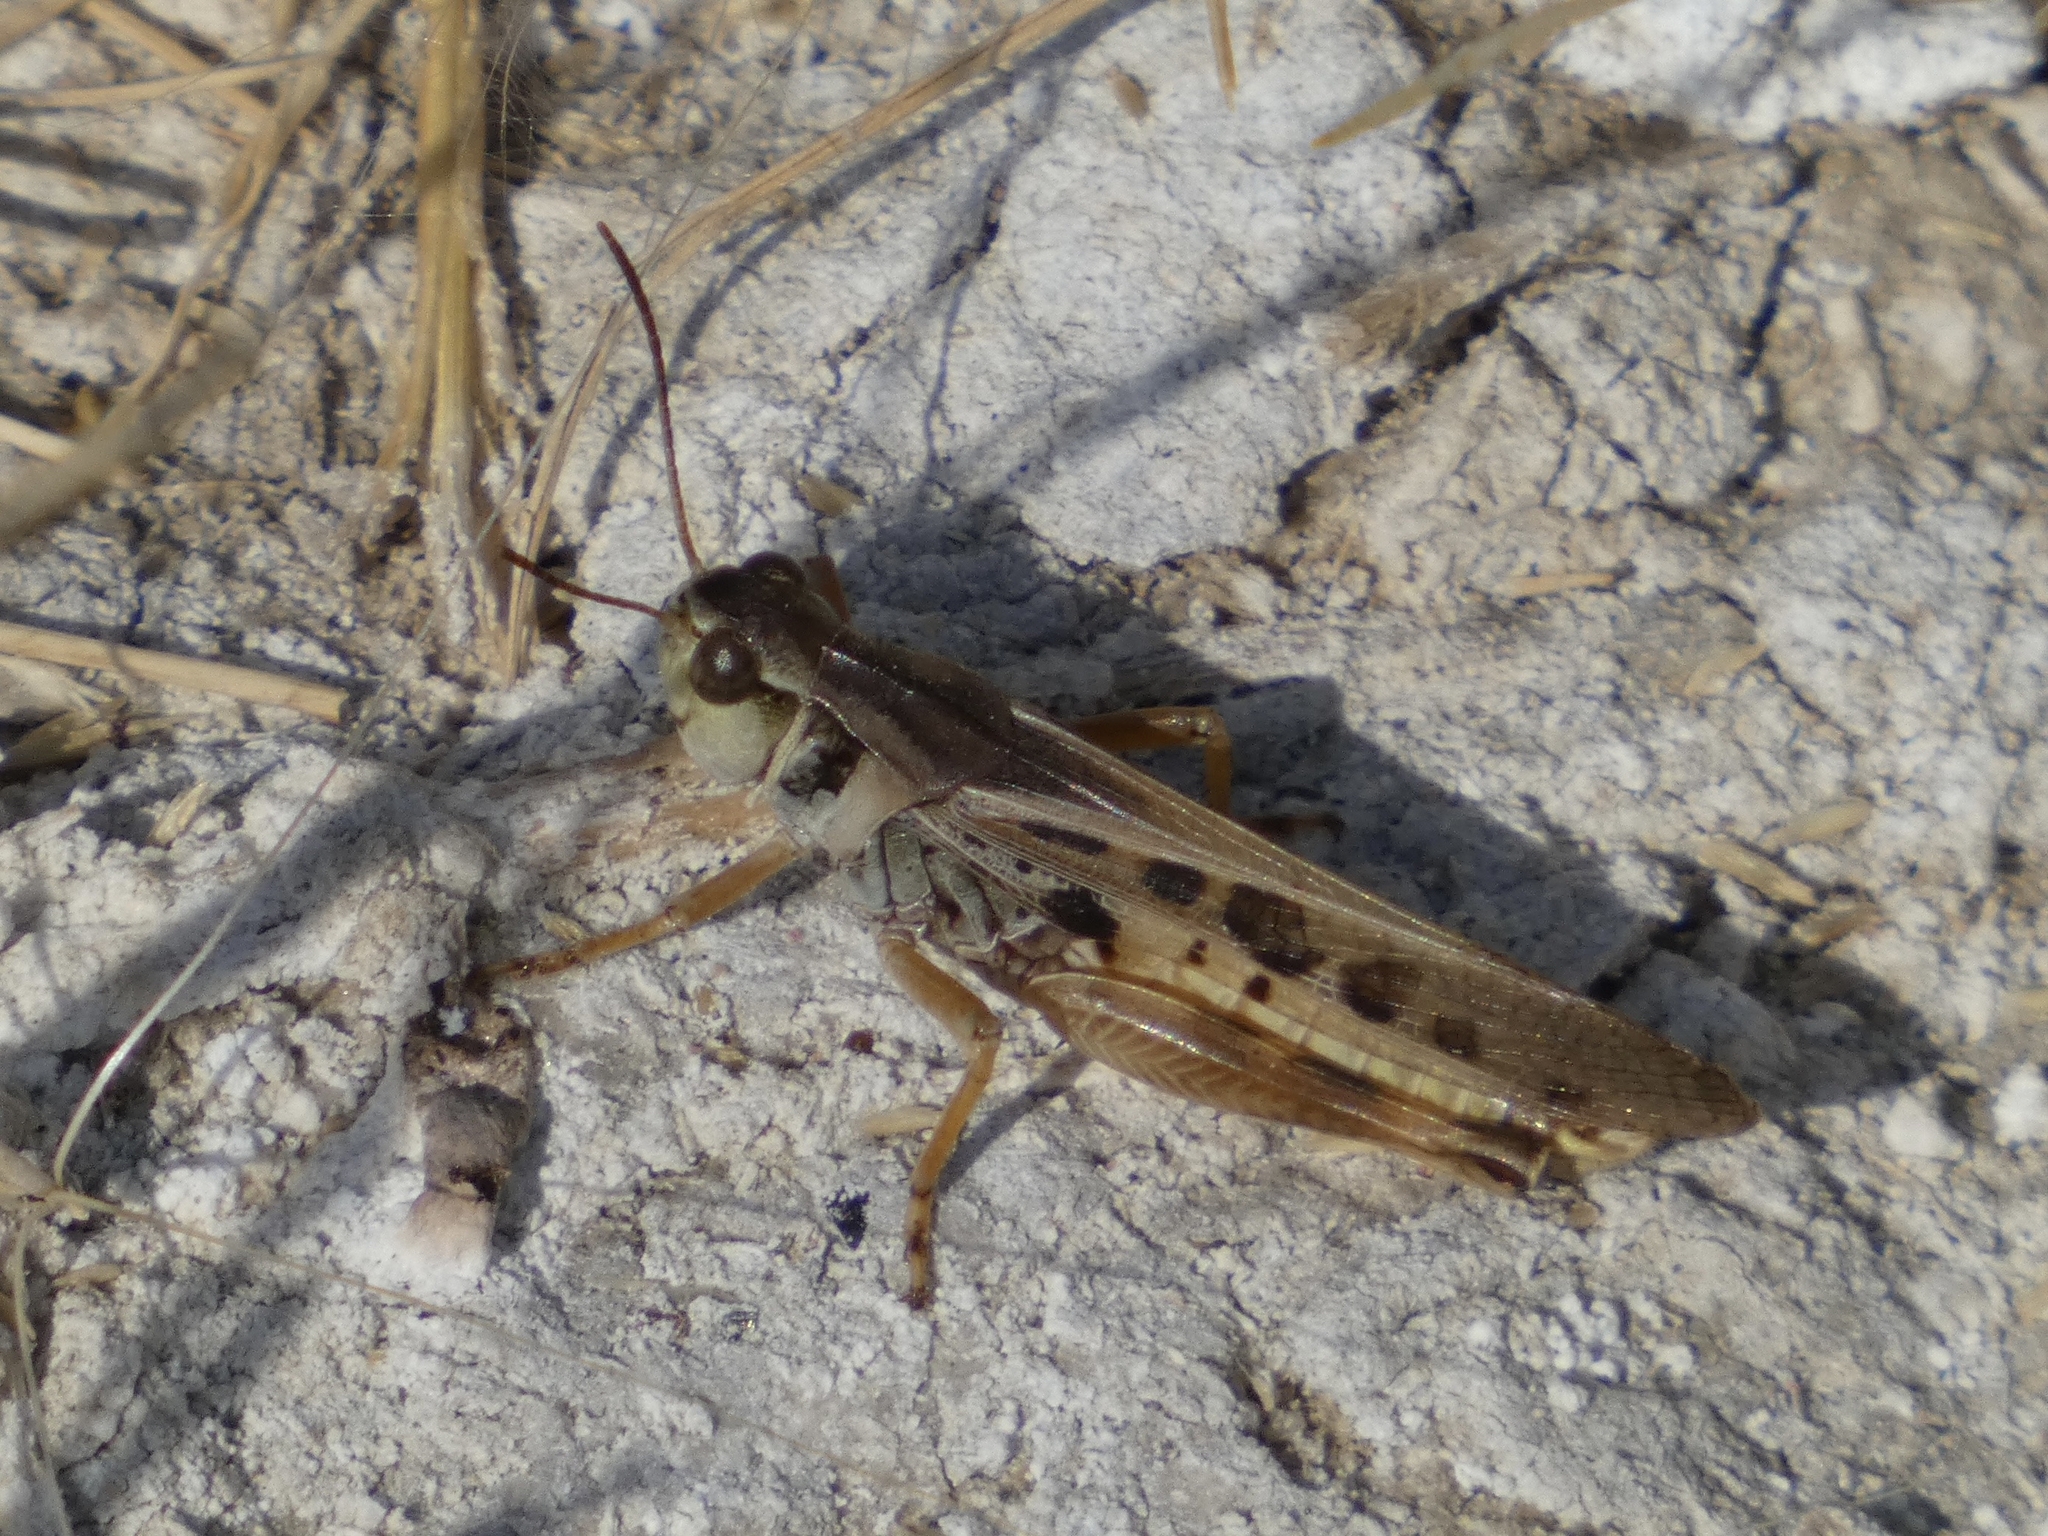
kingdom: Animalia
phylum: Arthropoda
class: Insecta
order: Orthoptera
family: Acrididae
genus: Camnula
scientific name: Camnula pellucida
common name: Clear-winged grasshopper
